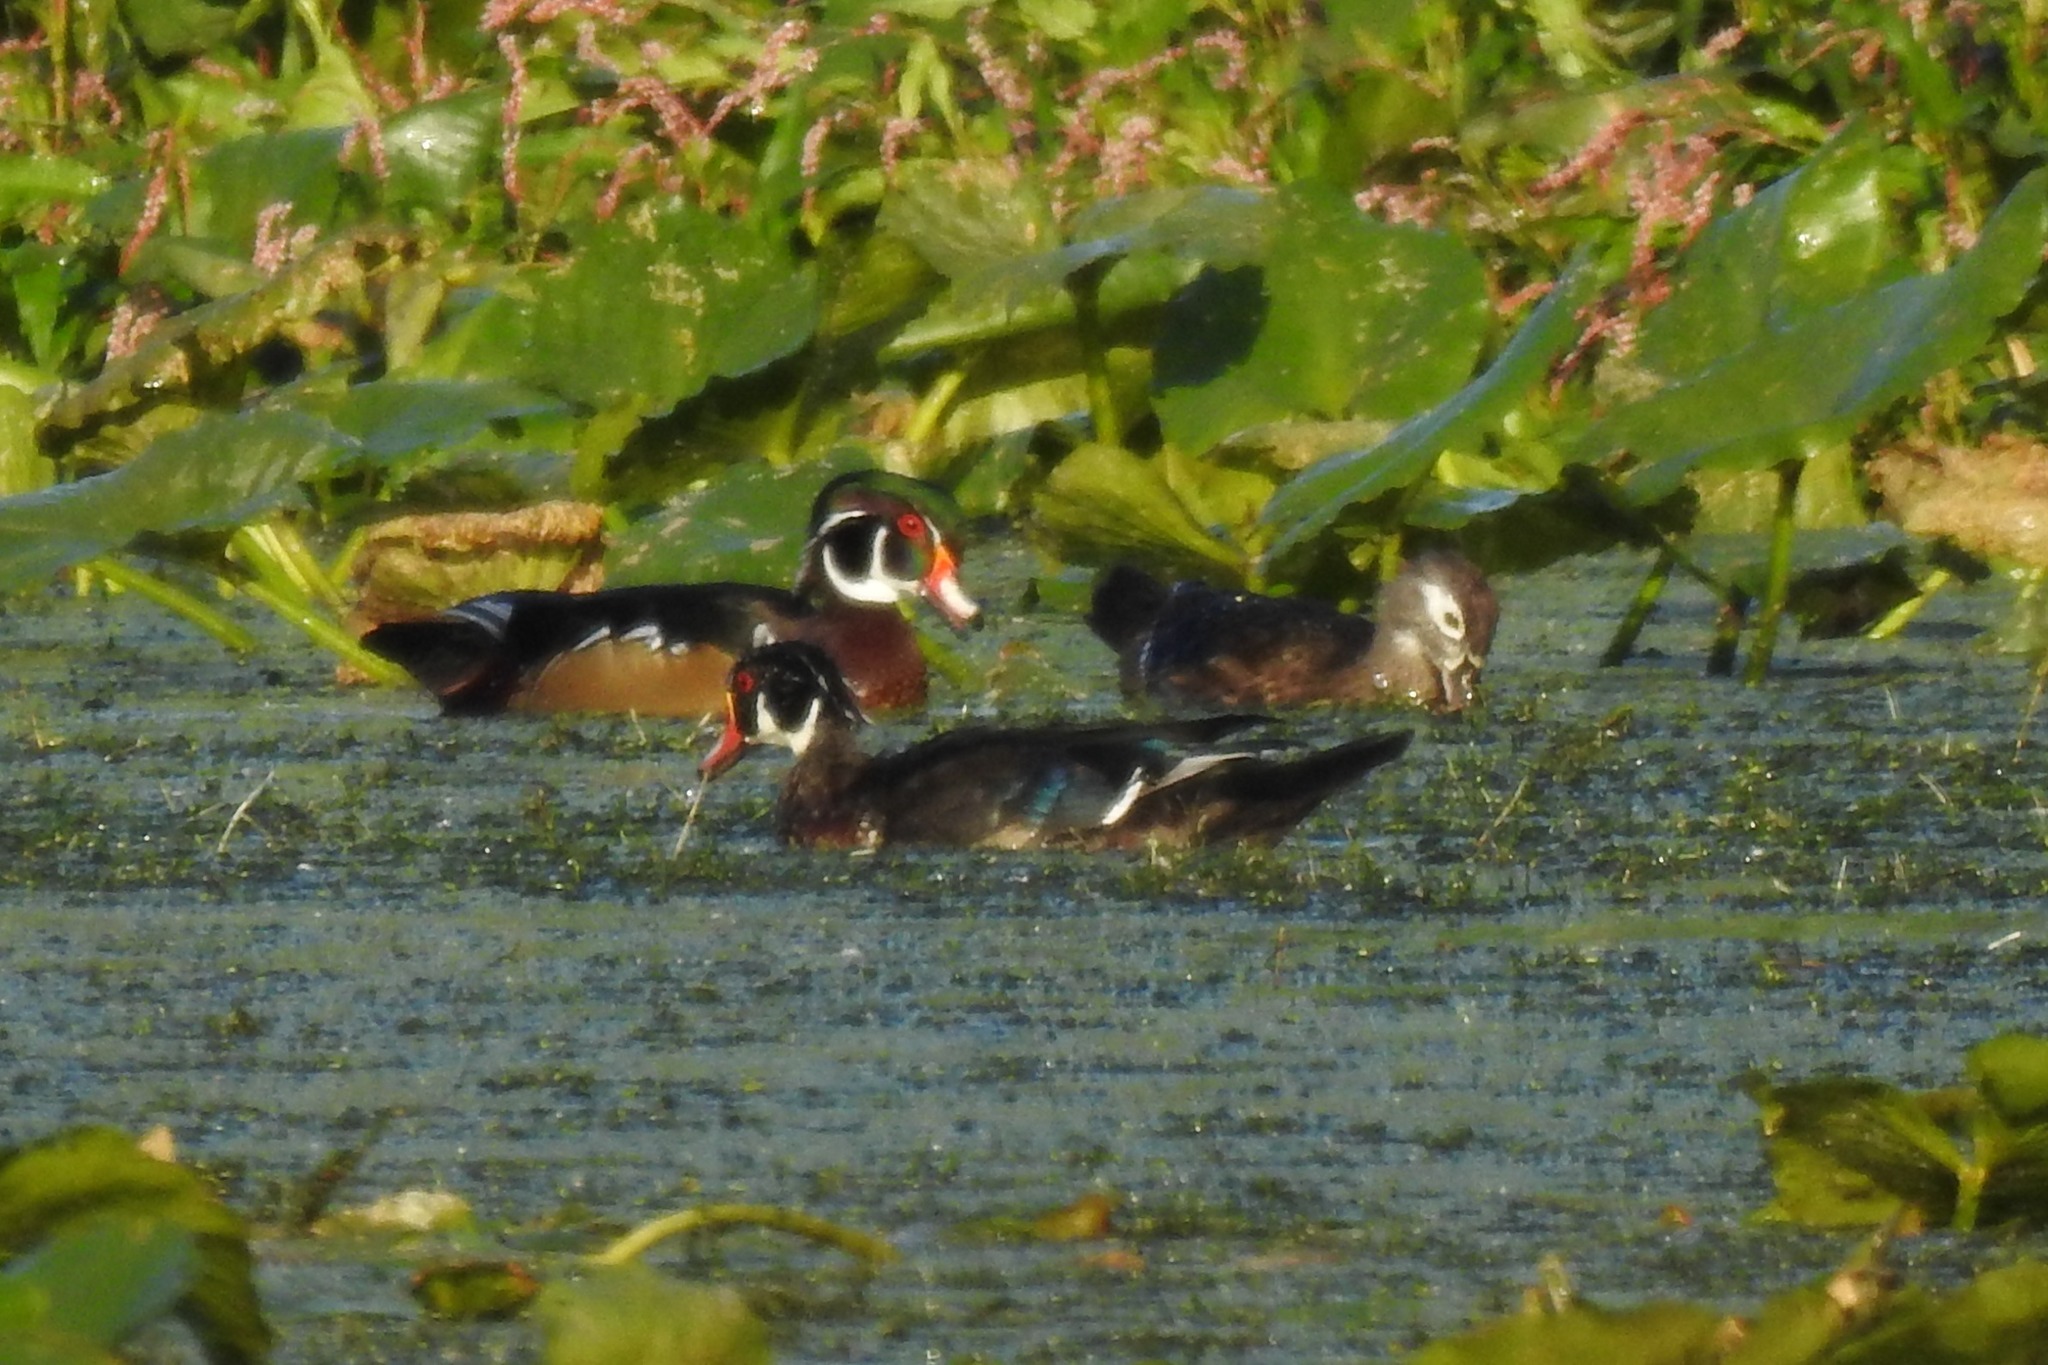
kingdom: Animalia
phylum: Chordata
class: Aves
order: Anseriformes
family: Anatidae
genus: Aix
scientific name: Aix sponsa
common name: Wood duck
